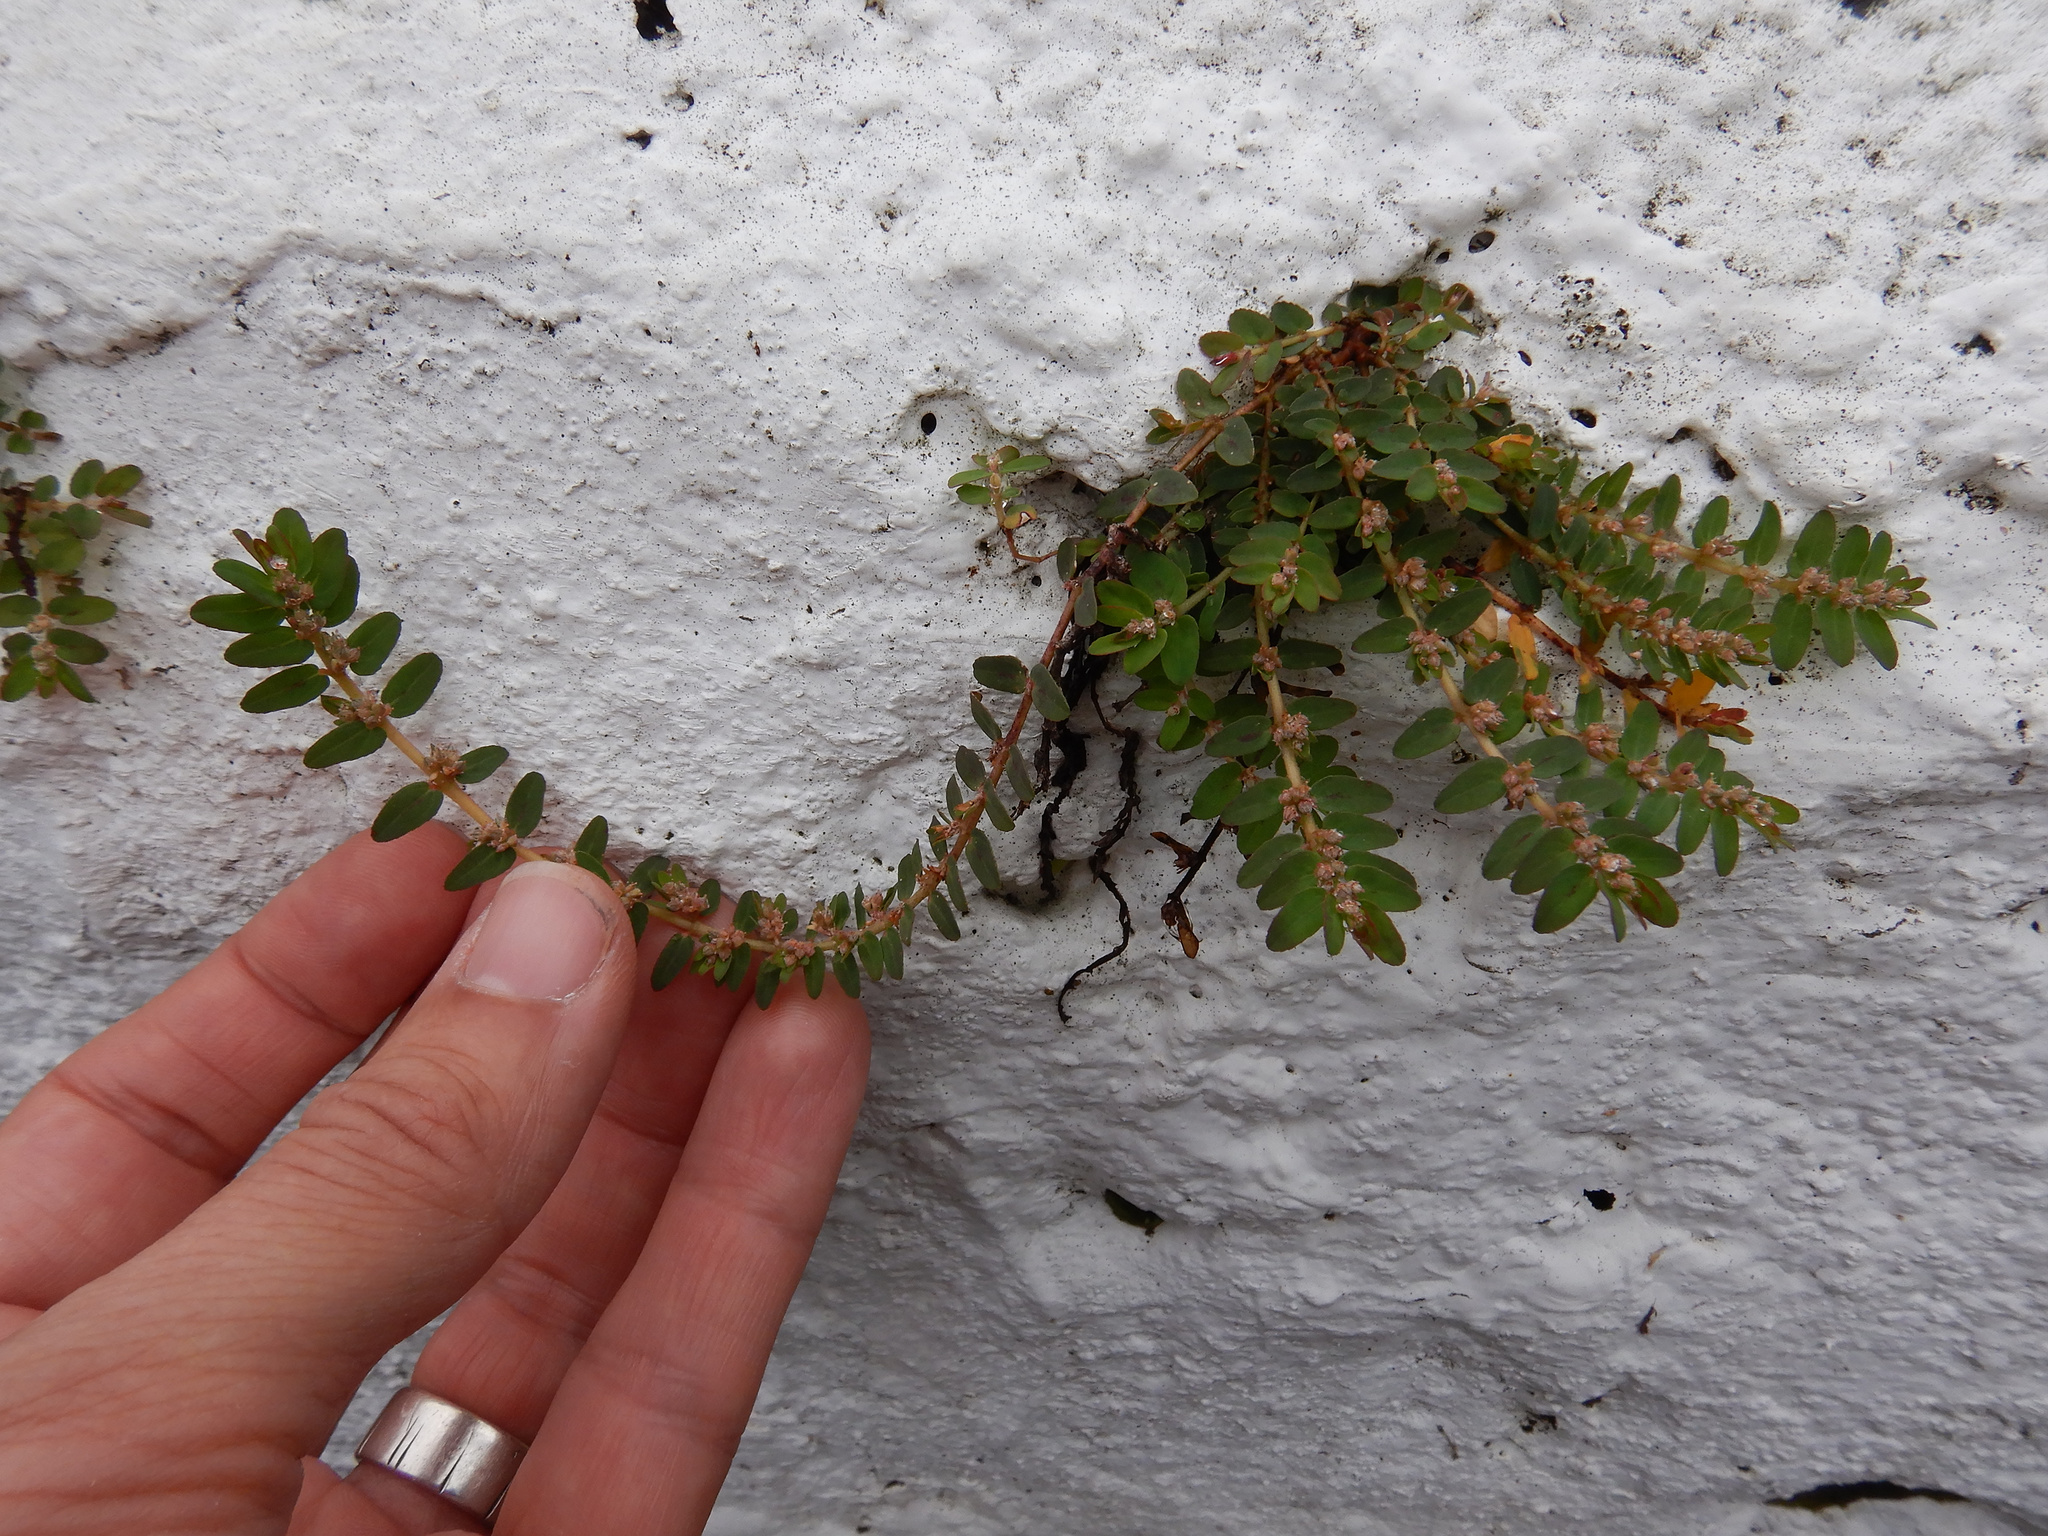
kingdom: Plantae
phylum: Tracheophyta
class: Magnoliopsida
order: Malpighiales
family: Euphorbiaceae
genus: Euphorbia
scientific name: Euphorbia thymifolia
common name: Gulf sandmat
